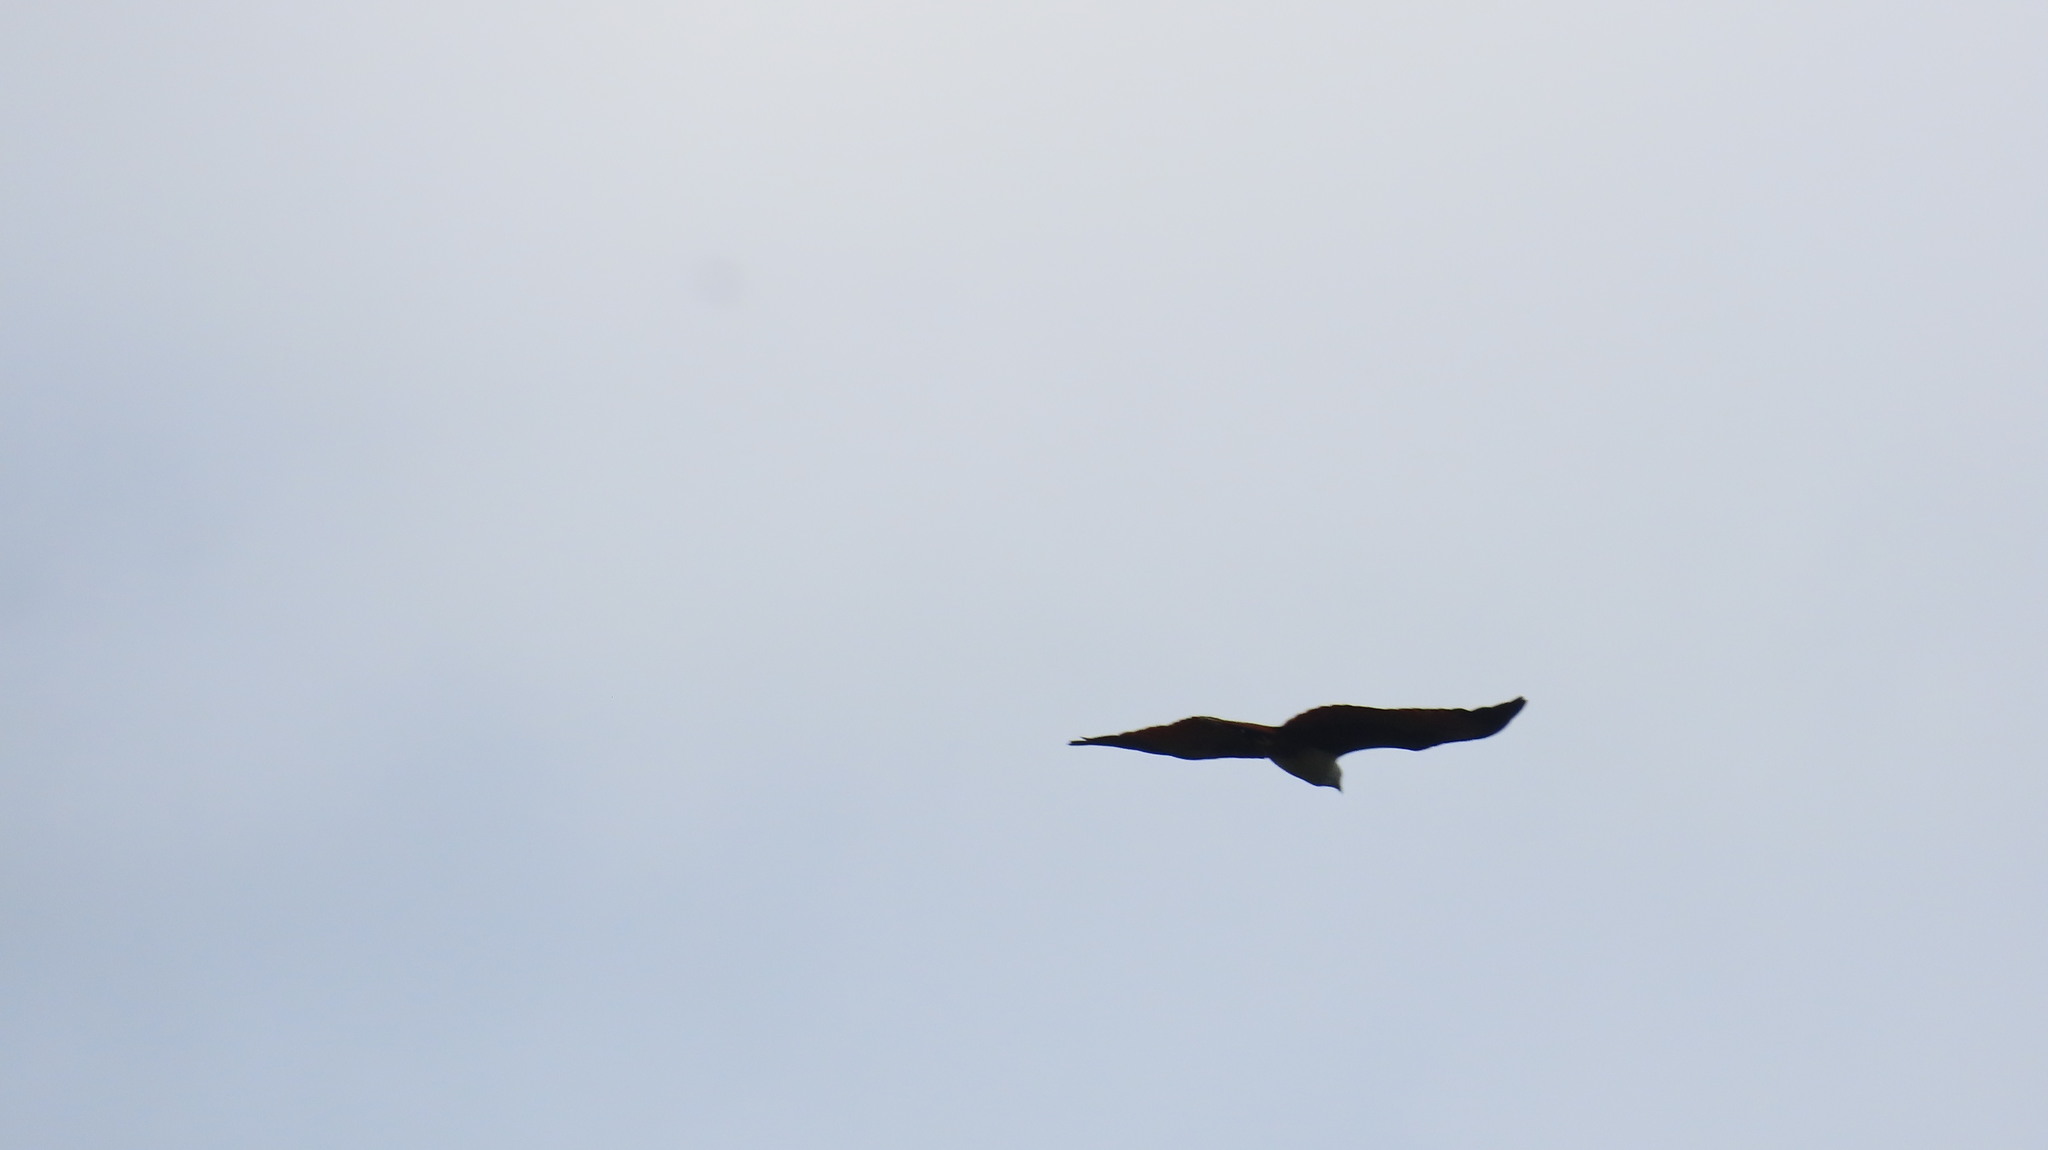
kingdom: Animalia
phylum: Chordata
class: Aves
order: Accipitriformes
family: Accipitridae
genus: Haliastur
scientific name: Haliastur indus
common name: Brahminy kite
